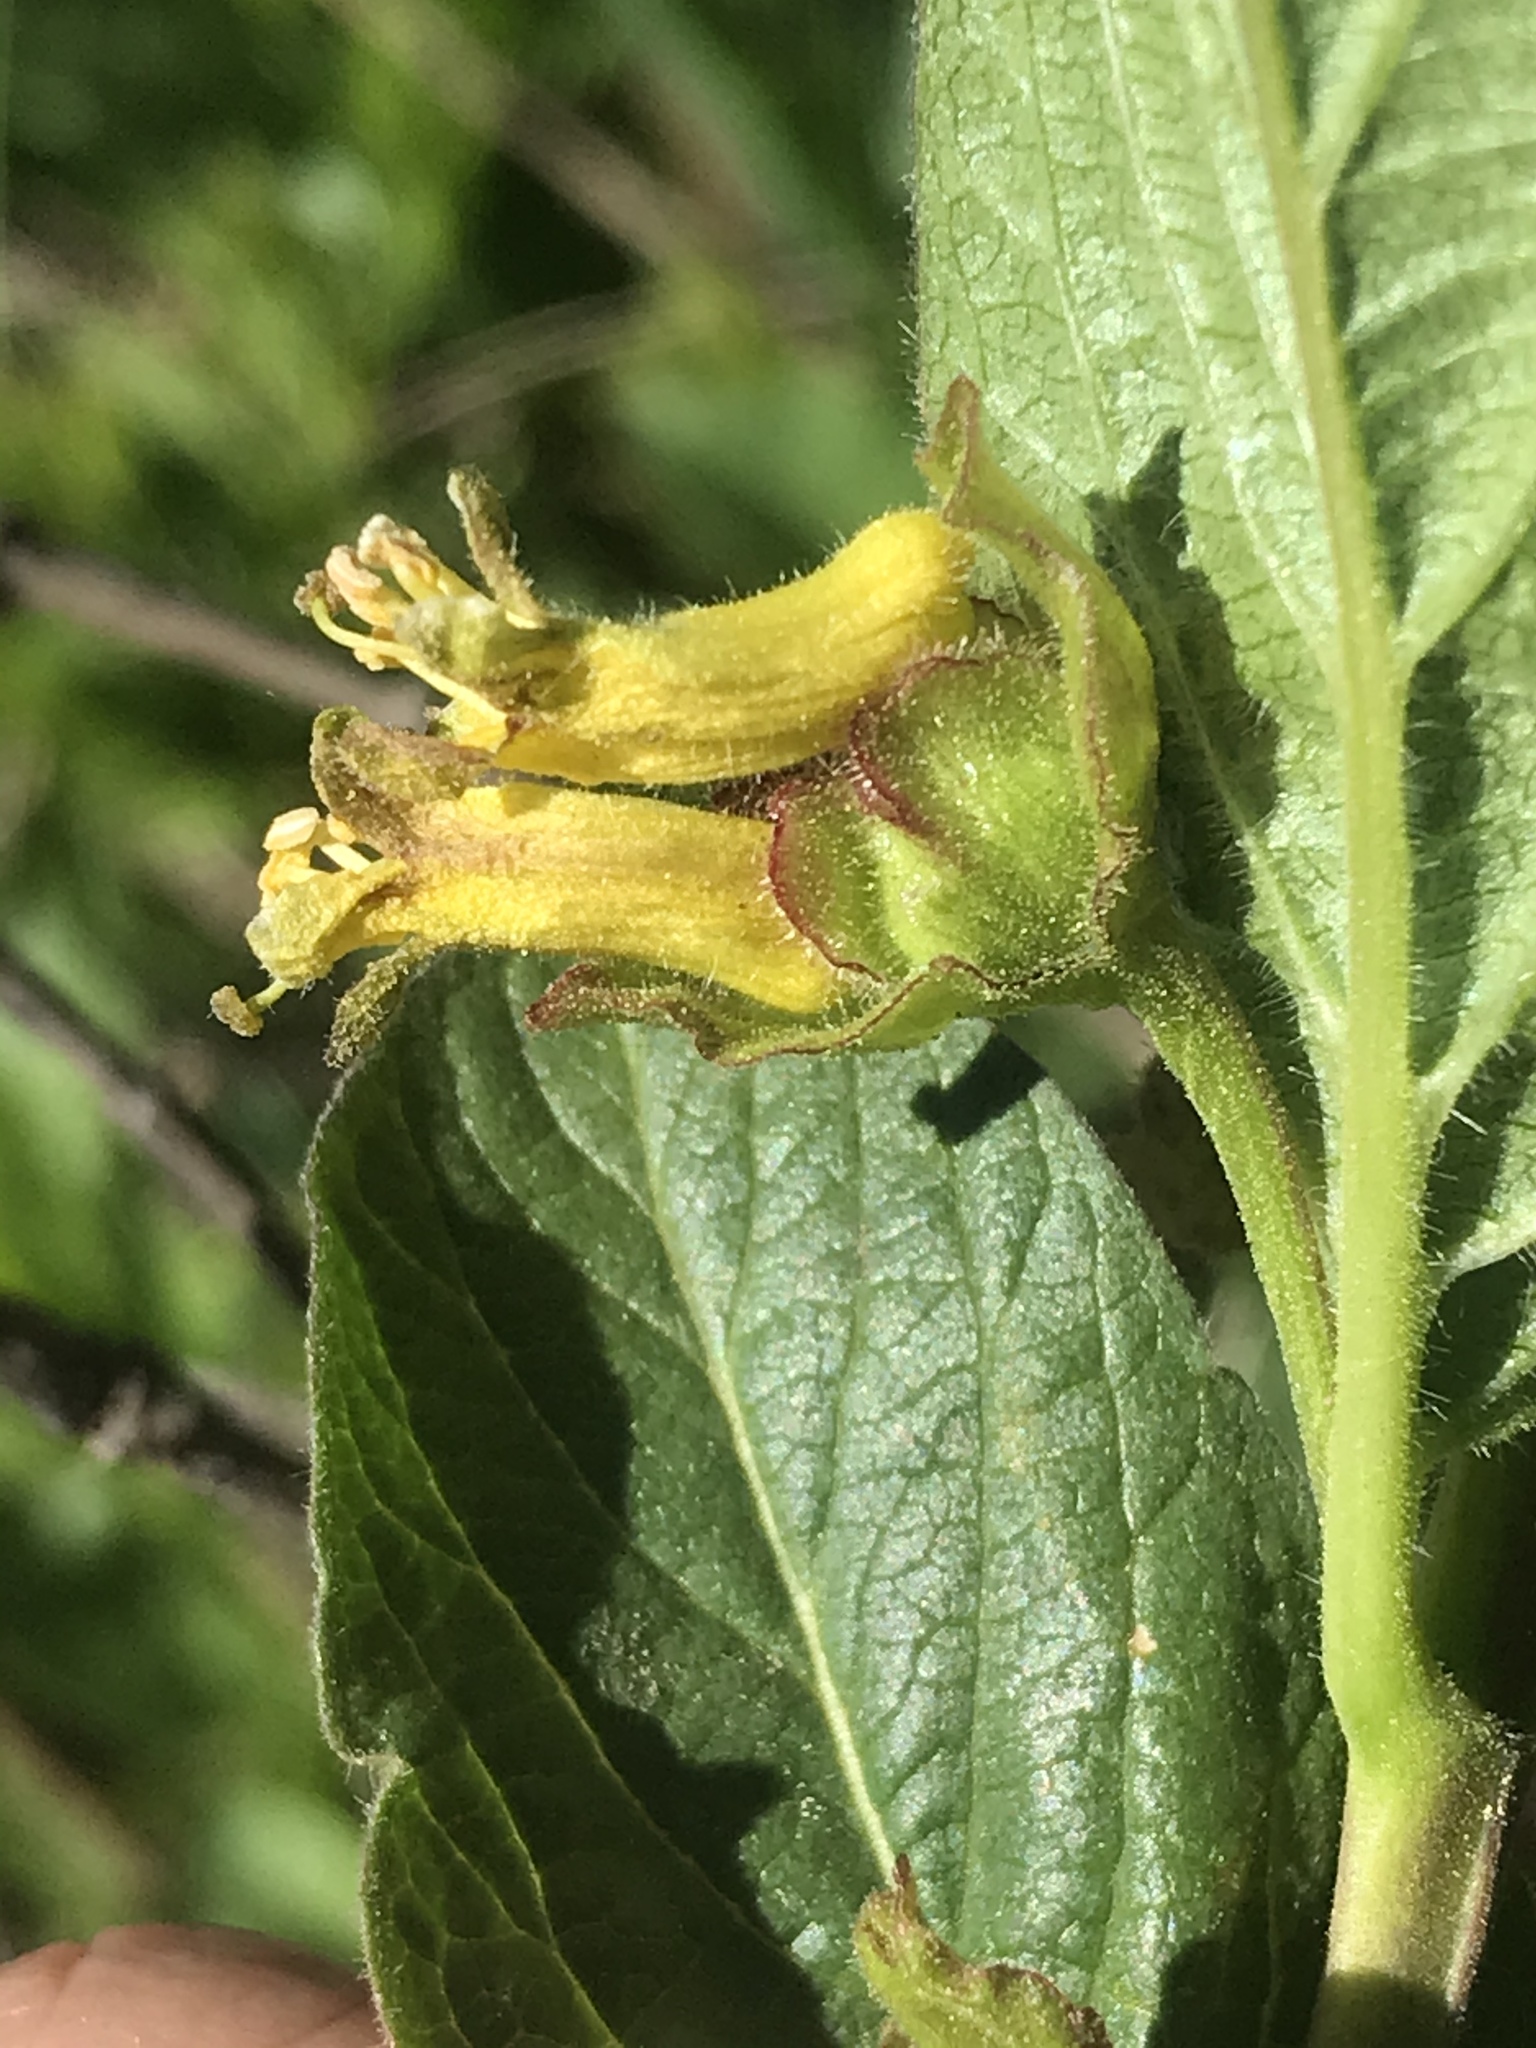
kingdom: Plantae
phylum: Tracheophyta
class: Magnoliopsida
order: Dipsacales
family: Caprifoliaceae
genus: Lonicera
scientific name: Lonicera involucrata
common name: Californian honeysuckle
